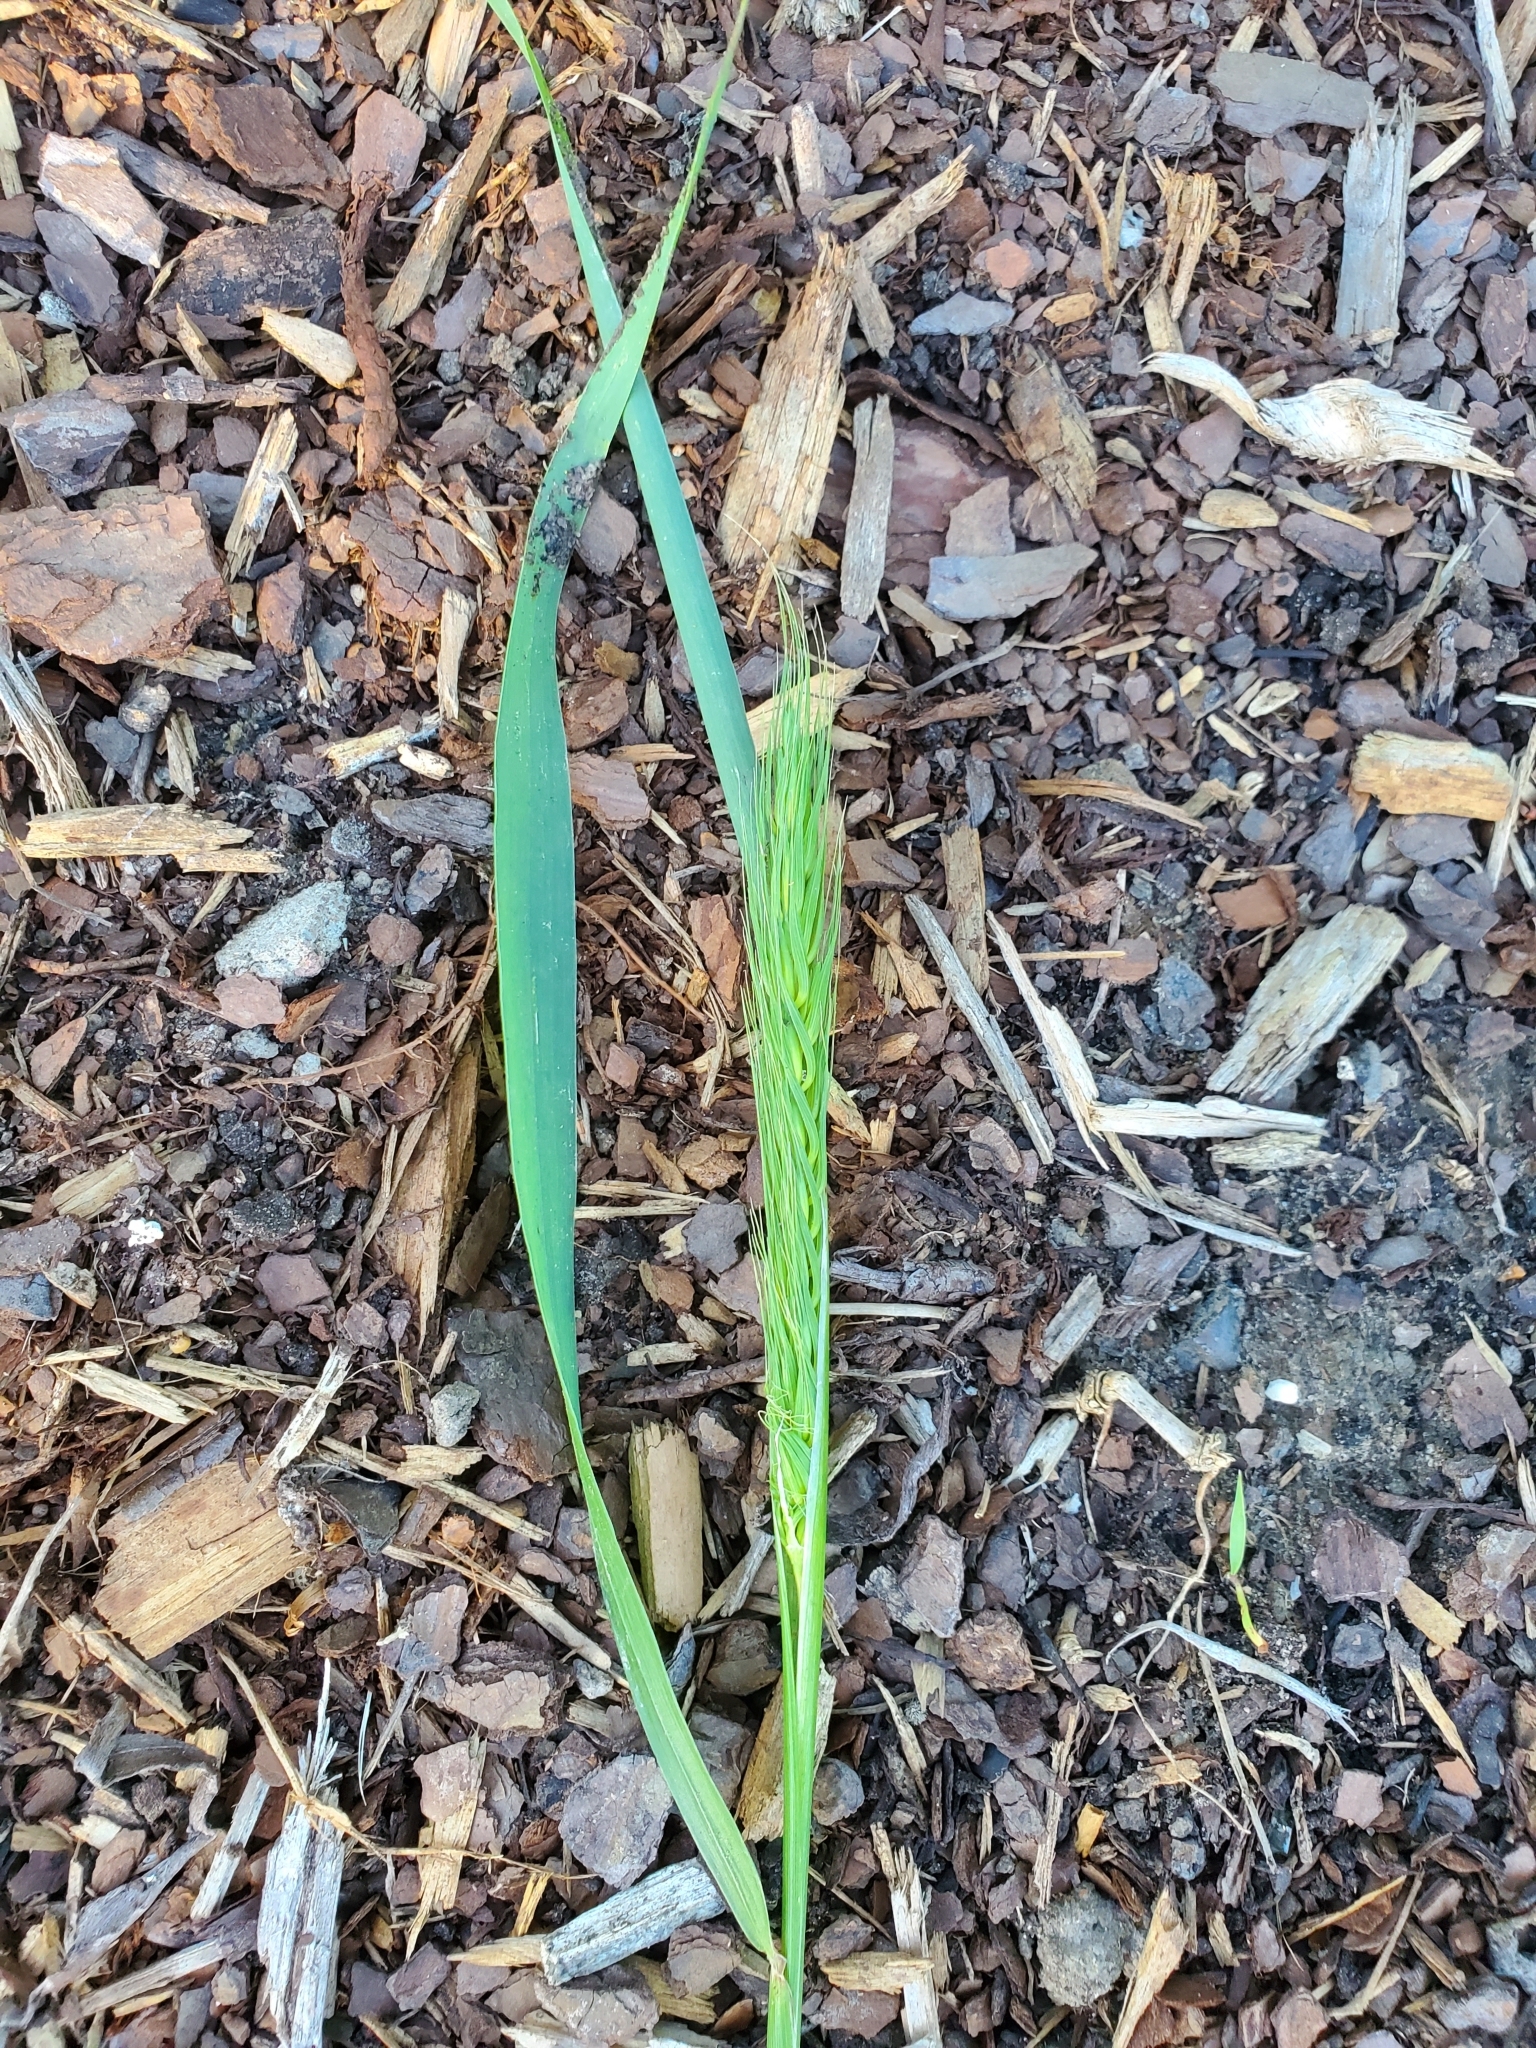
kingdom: Plantae
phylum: Tracheophyta
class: Liliopsida
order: Poales
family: Poaceae
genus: Elymus
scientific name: Elymus virginicus
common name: Common eastern wildrye
